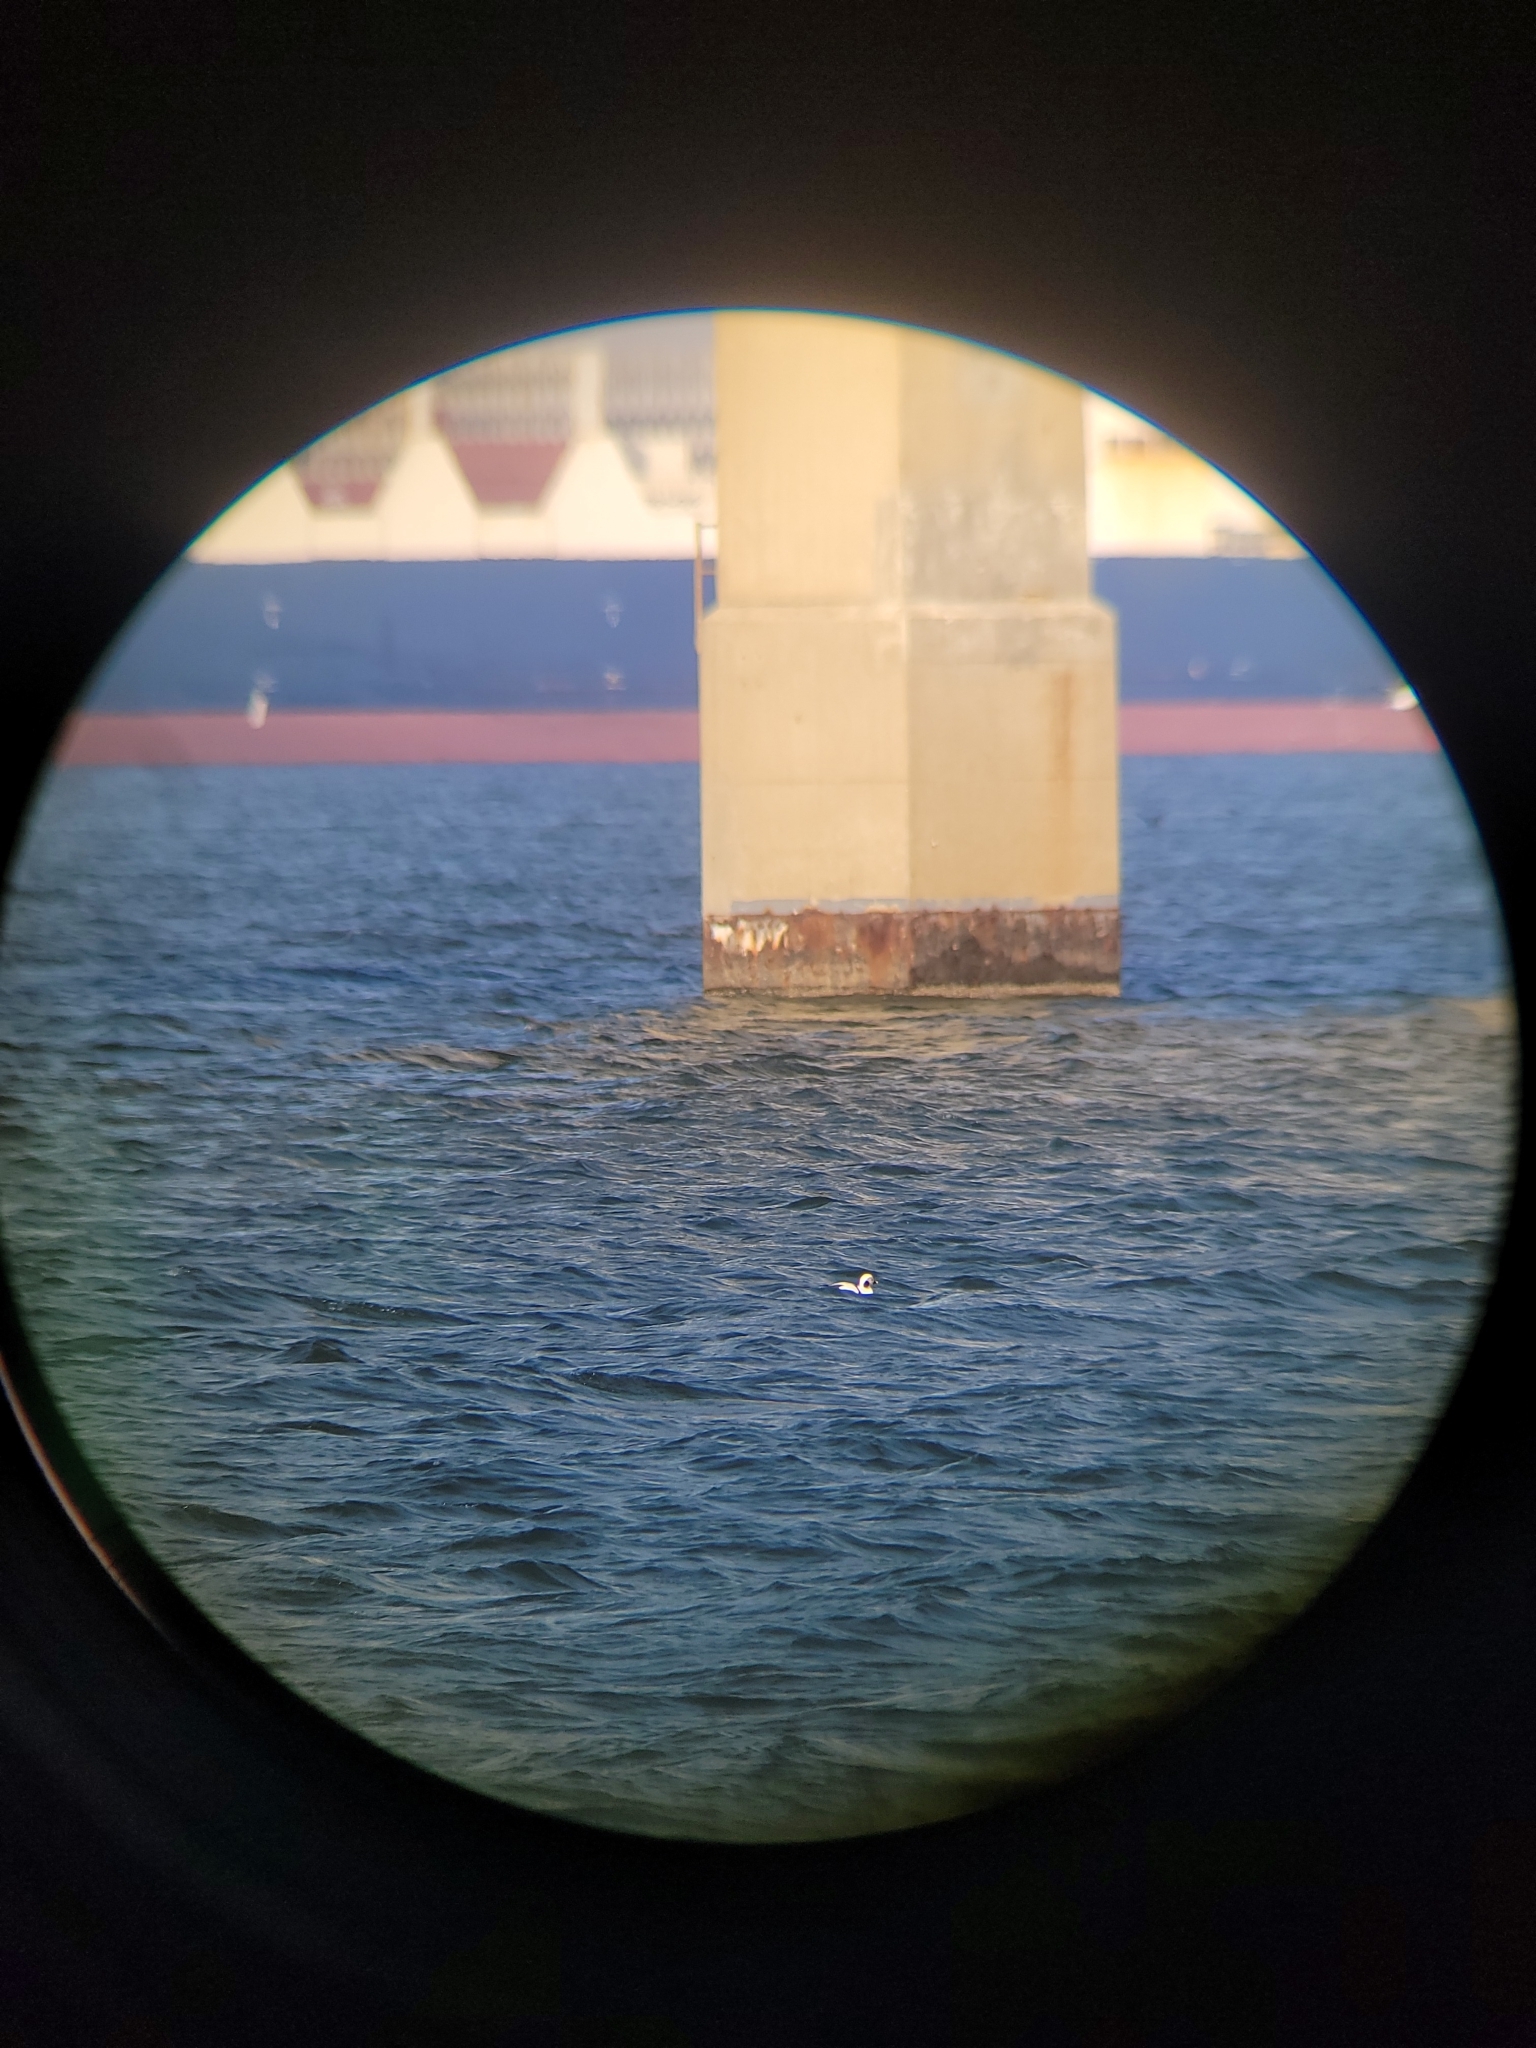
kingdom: Animalia
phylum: Chordata
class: Aves
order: Anseriformes
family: Anatidae
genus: Clangula
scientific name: Clangula hyemalis
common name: Long-tailed duck
